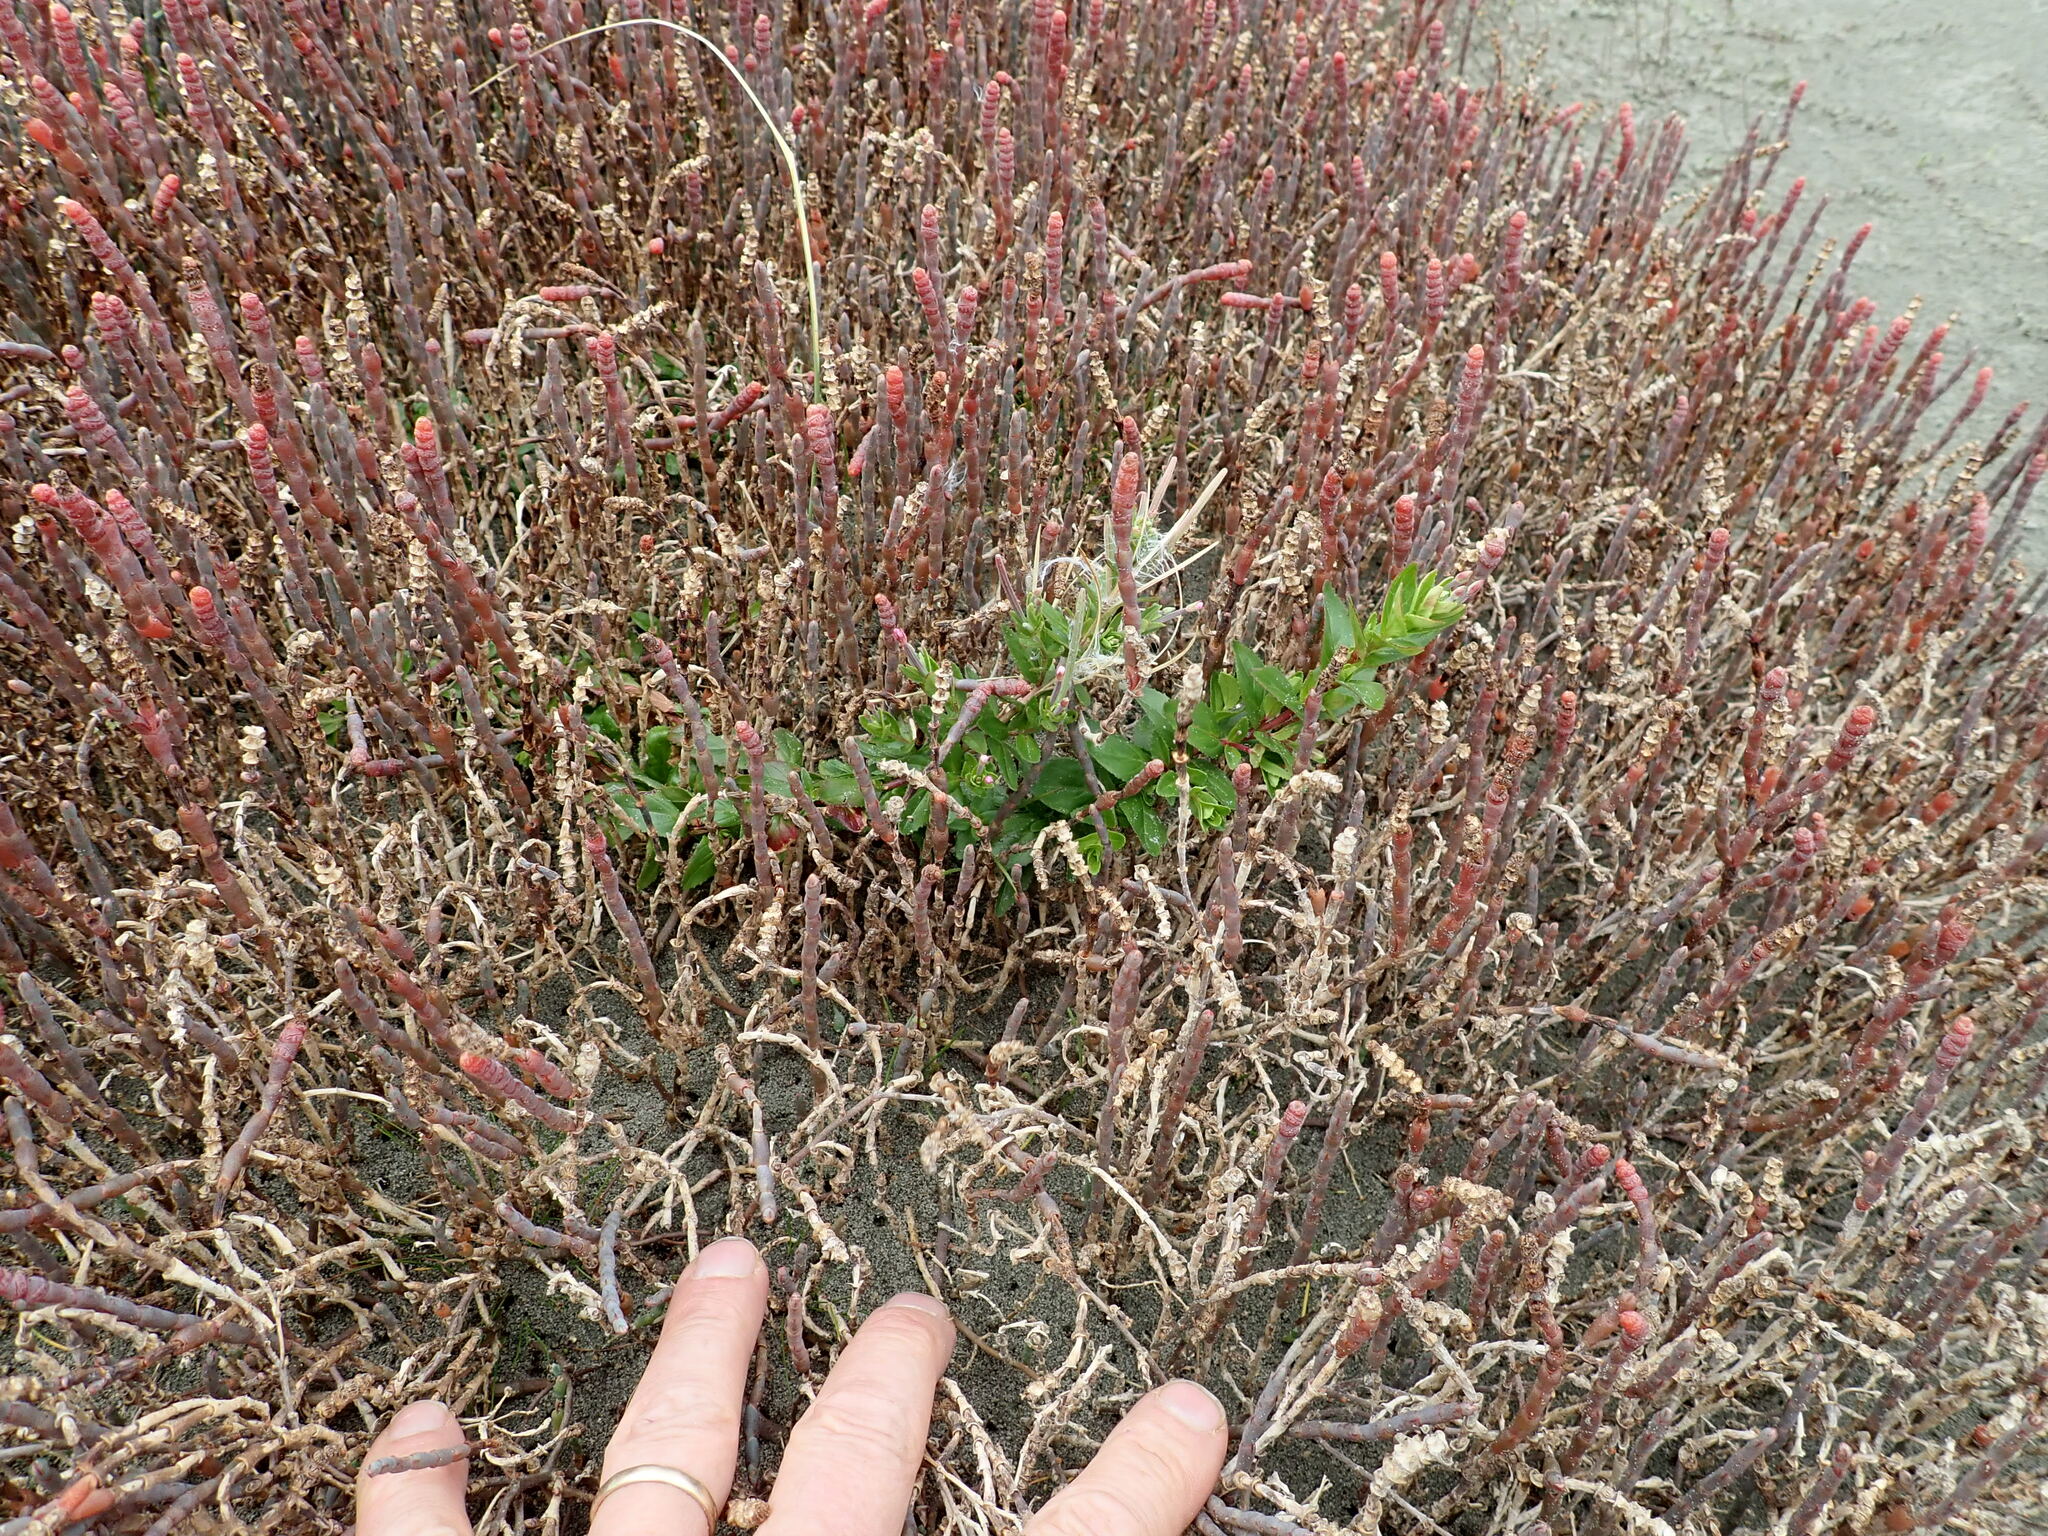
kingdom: Plantae
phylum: Tracheophyta
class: Magnoliopsida
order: Myrtales
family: Onagraceae
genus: Epilobium
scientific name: Epilobium billardiereanum
